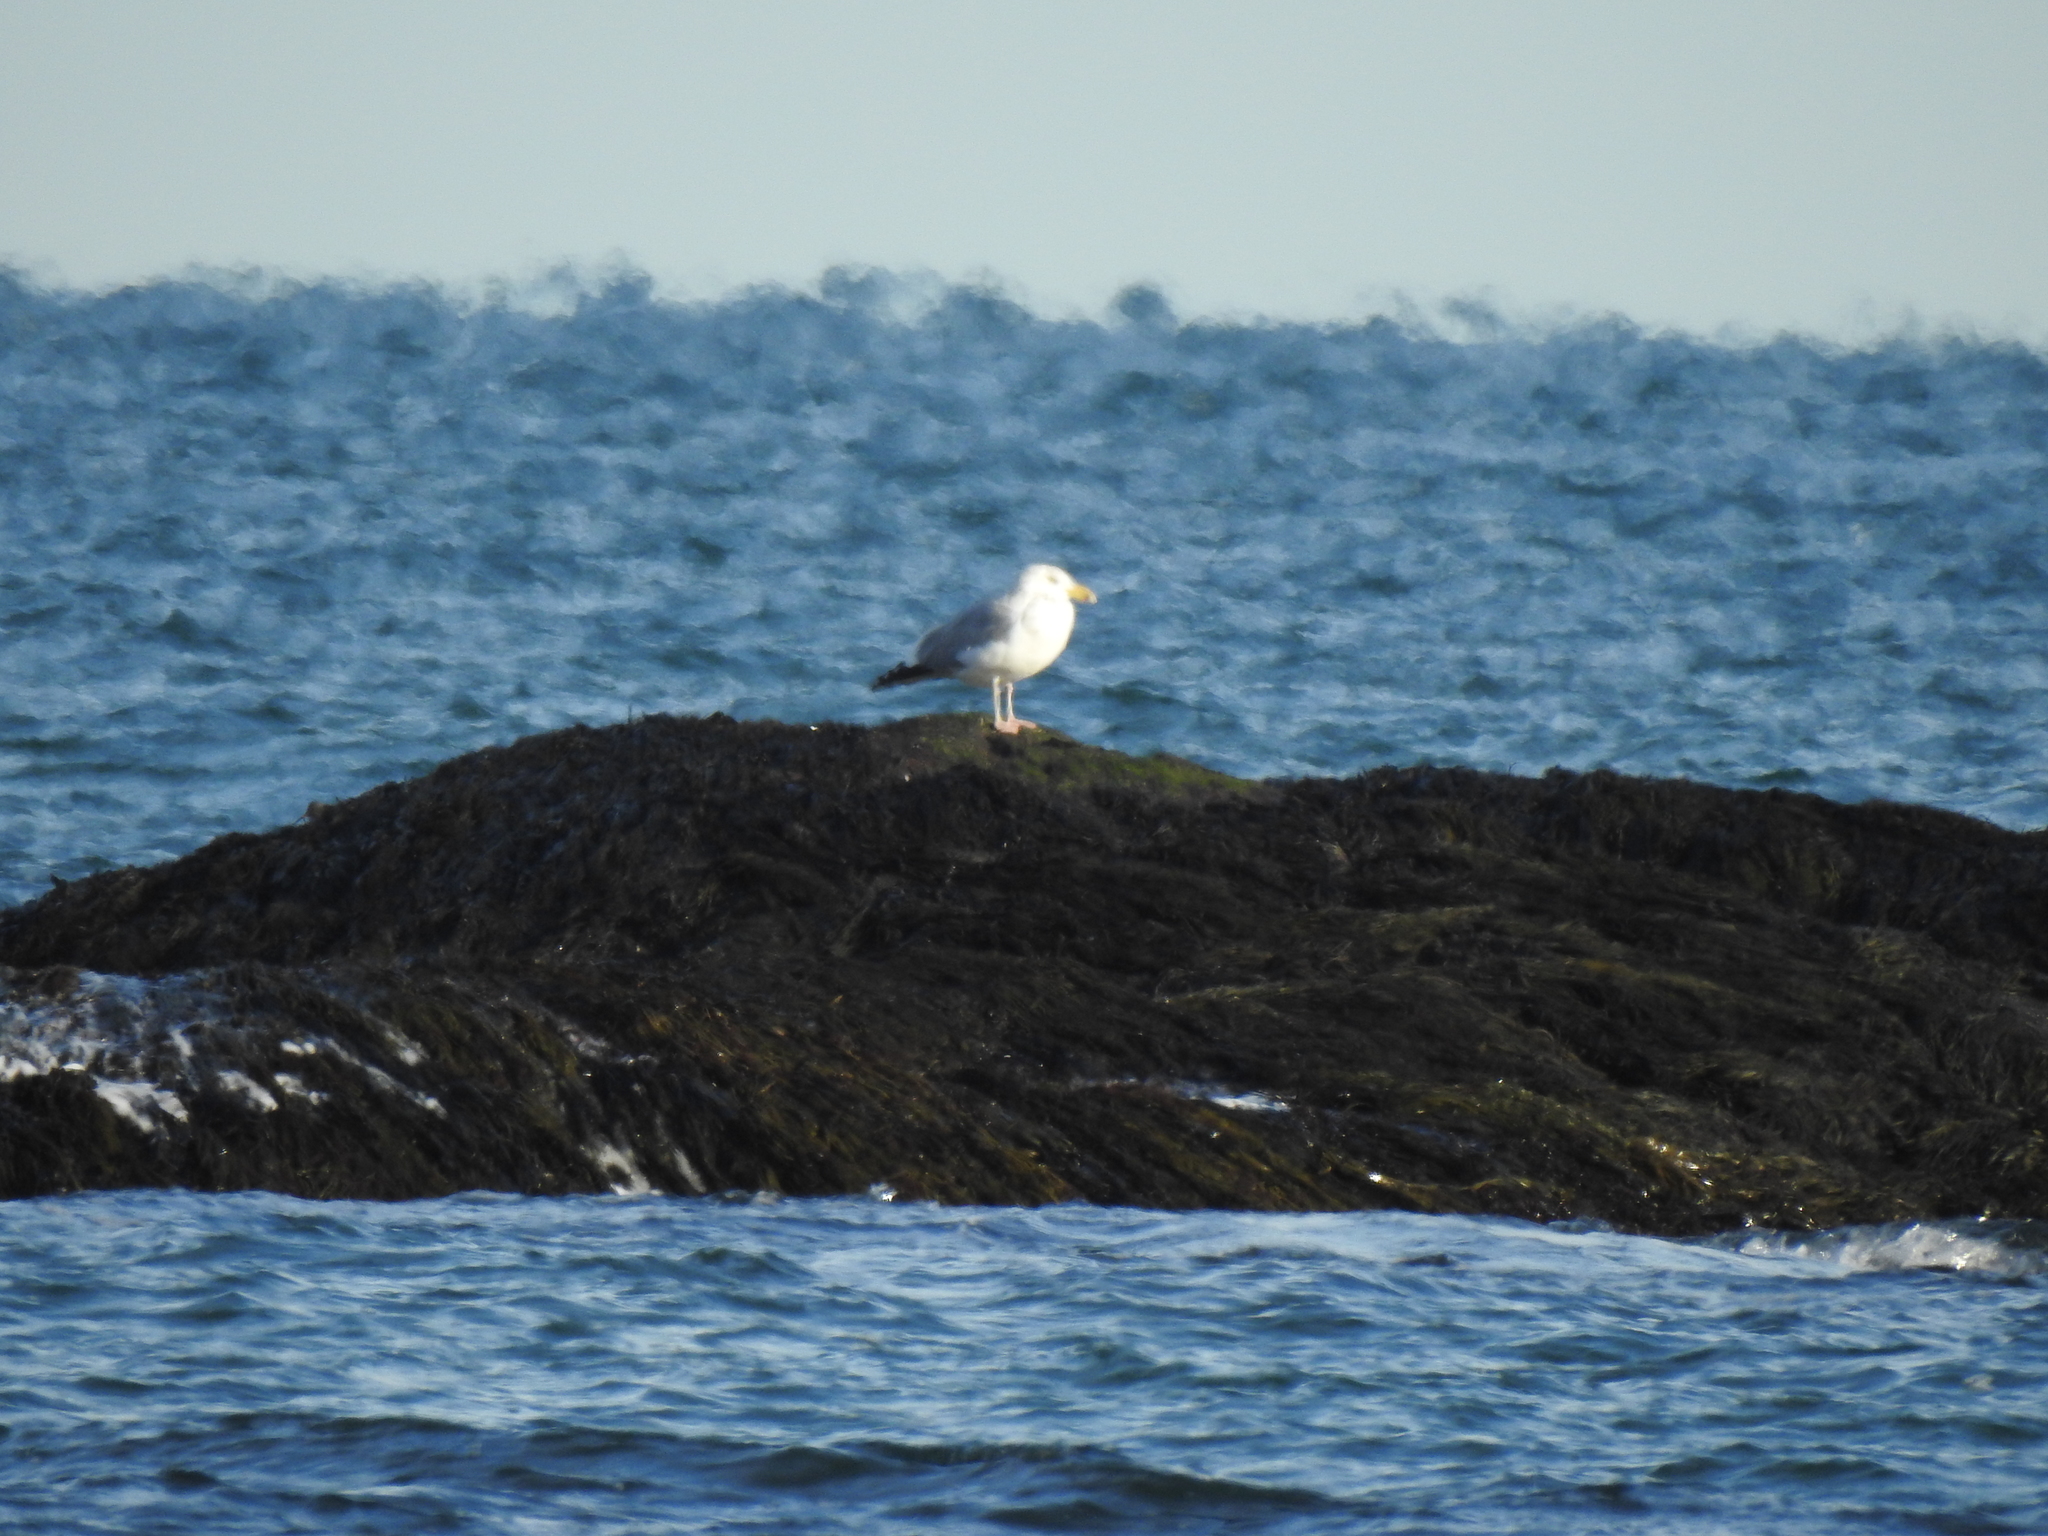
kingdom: Animalia
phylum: Chordata
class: Aves
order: Charadriiformes
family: Laridae
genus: Larus
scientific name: Larus argentatus
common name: Herring gull
